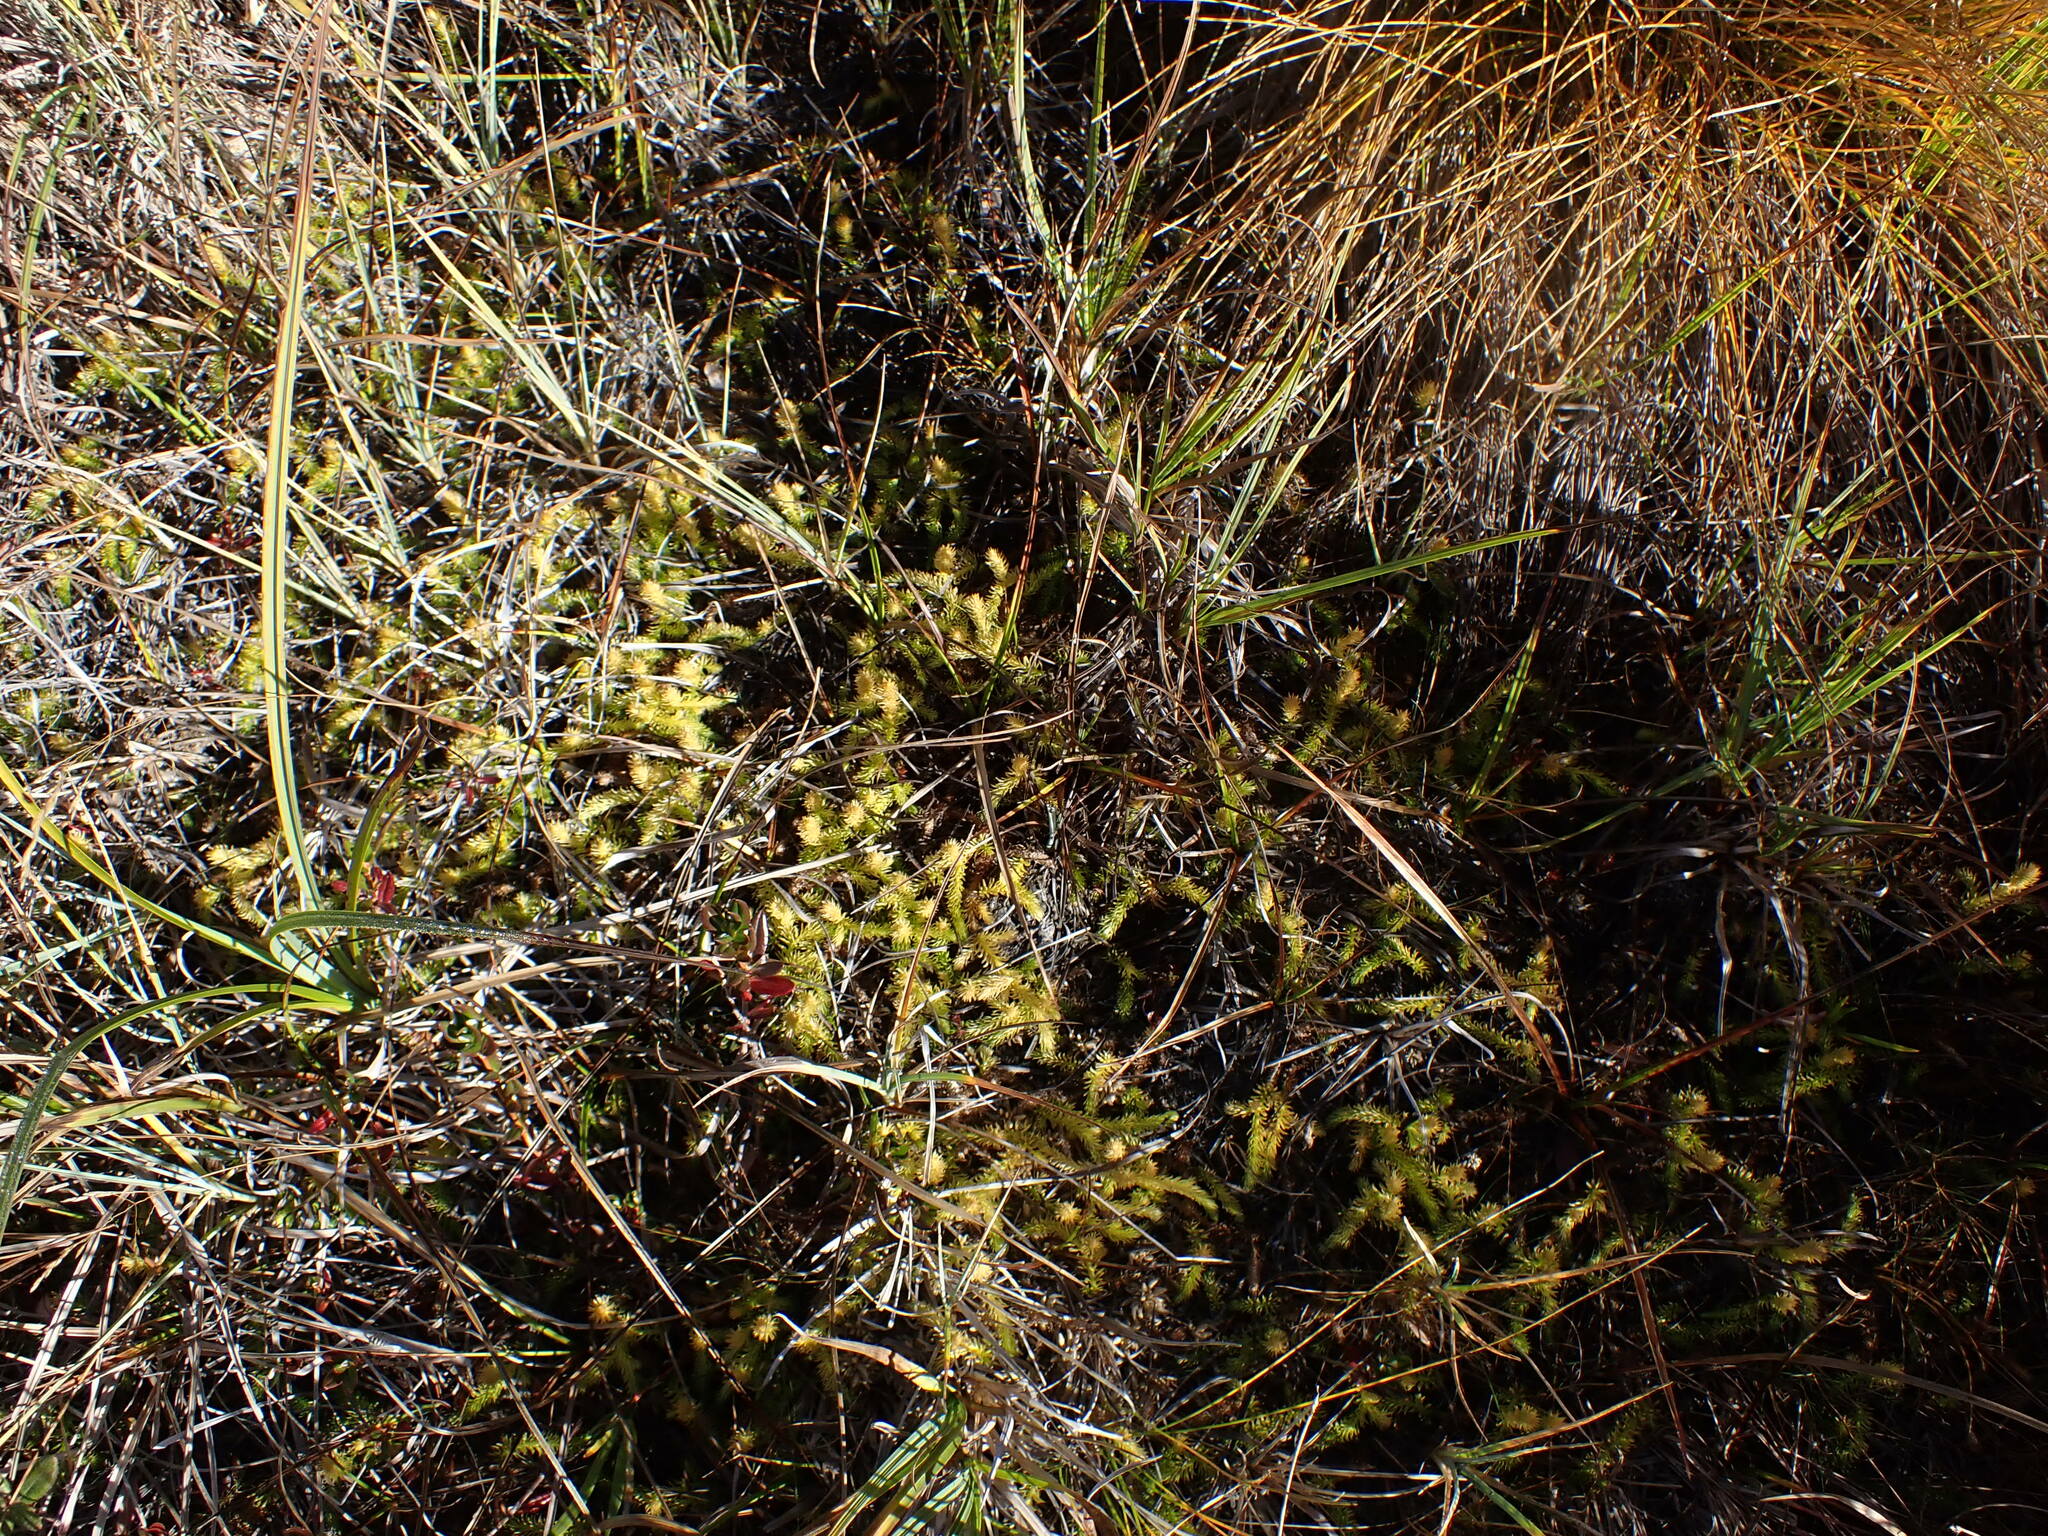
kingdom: Plantae
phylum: Tracheophyta
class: Lycopodiopsida
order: Lycopodiales
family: Lycopodiaceae
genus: Lycopodiella
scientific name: Lycopodiella inundata
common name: Marsh clubmoss
